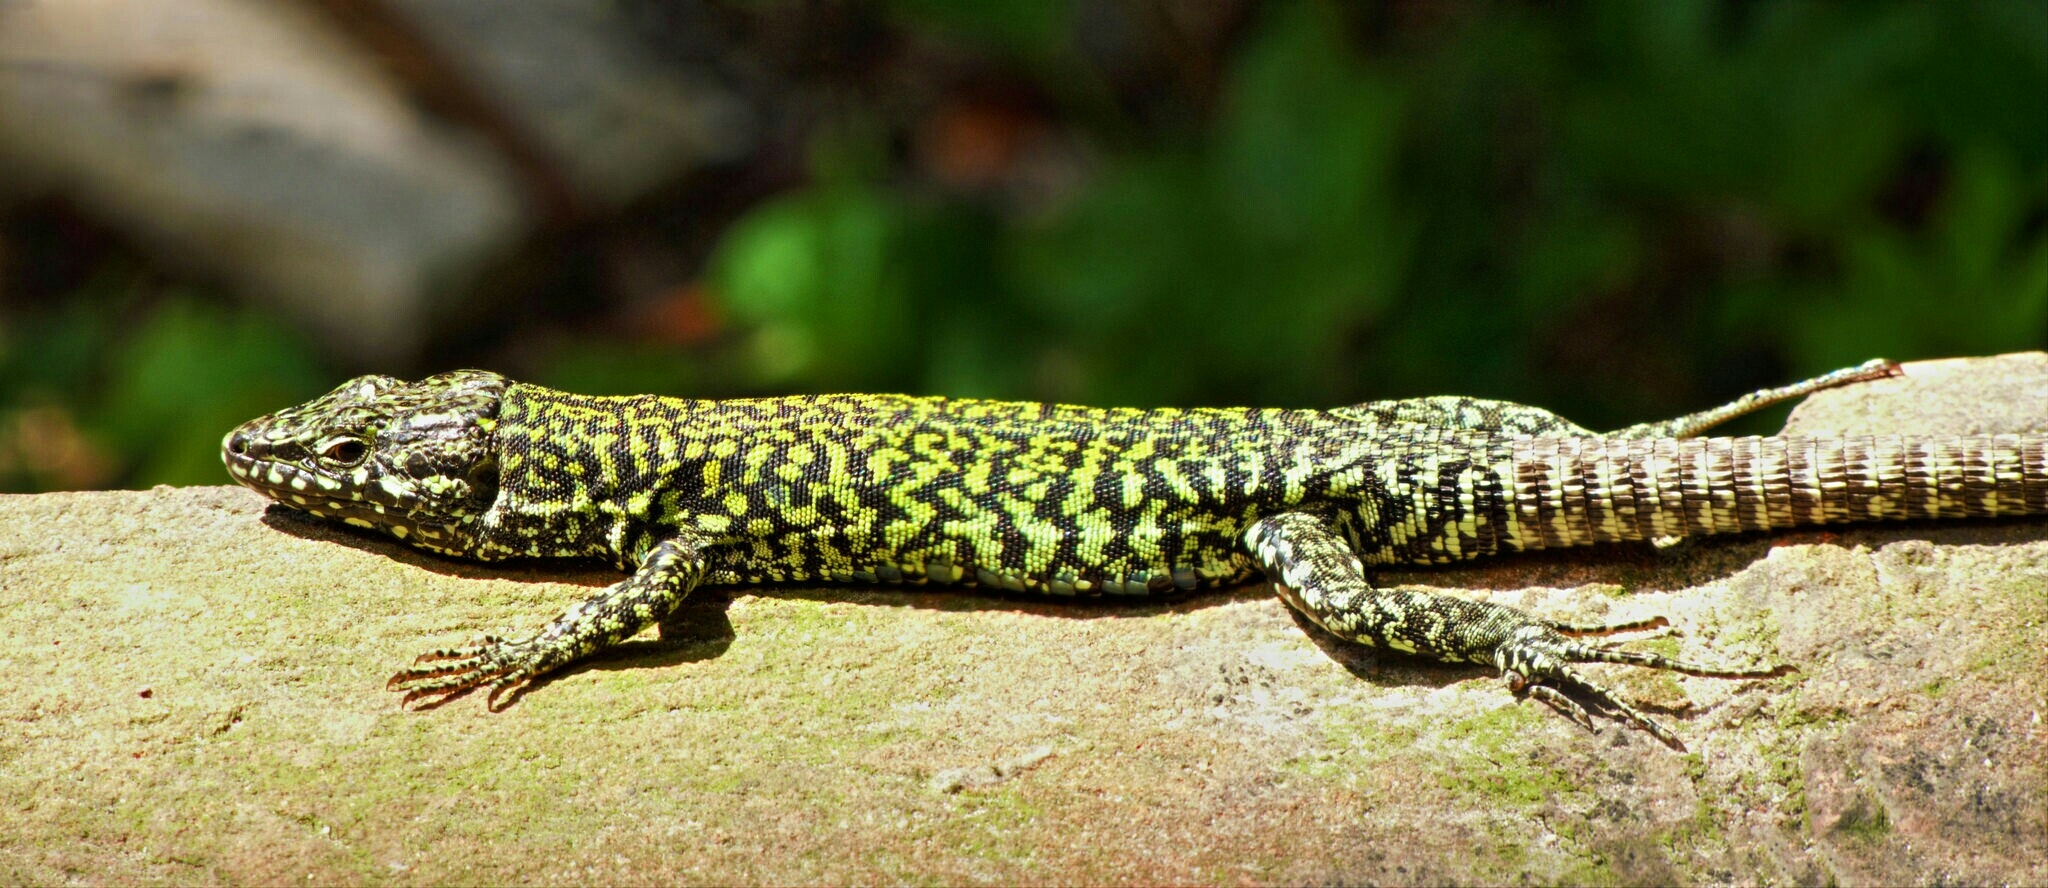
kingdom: Animalia
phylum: Chordata
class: Squamata
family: Lacertidae
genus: Podarcis
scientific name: Podarcis muralis
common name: Common wall lizard
